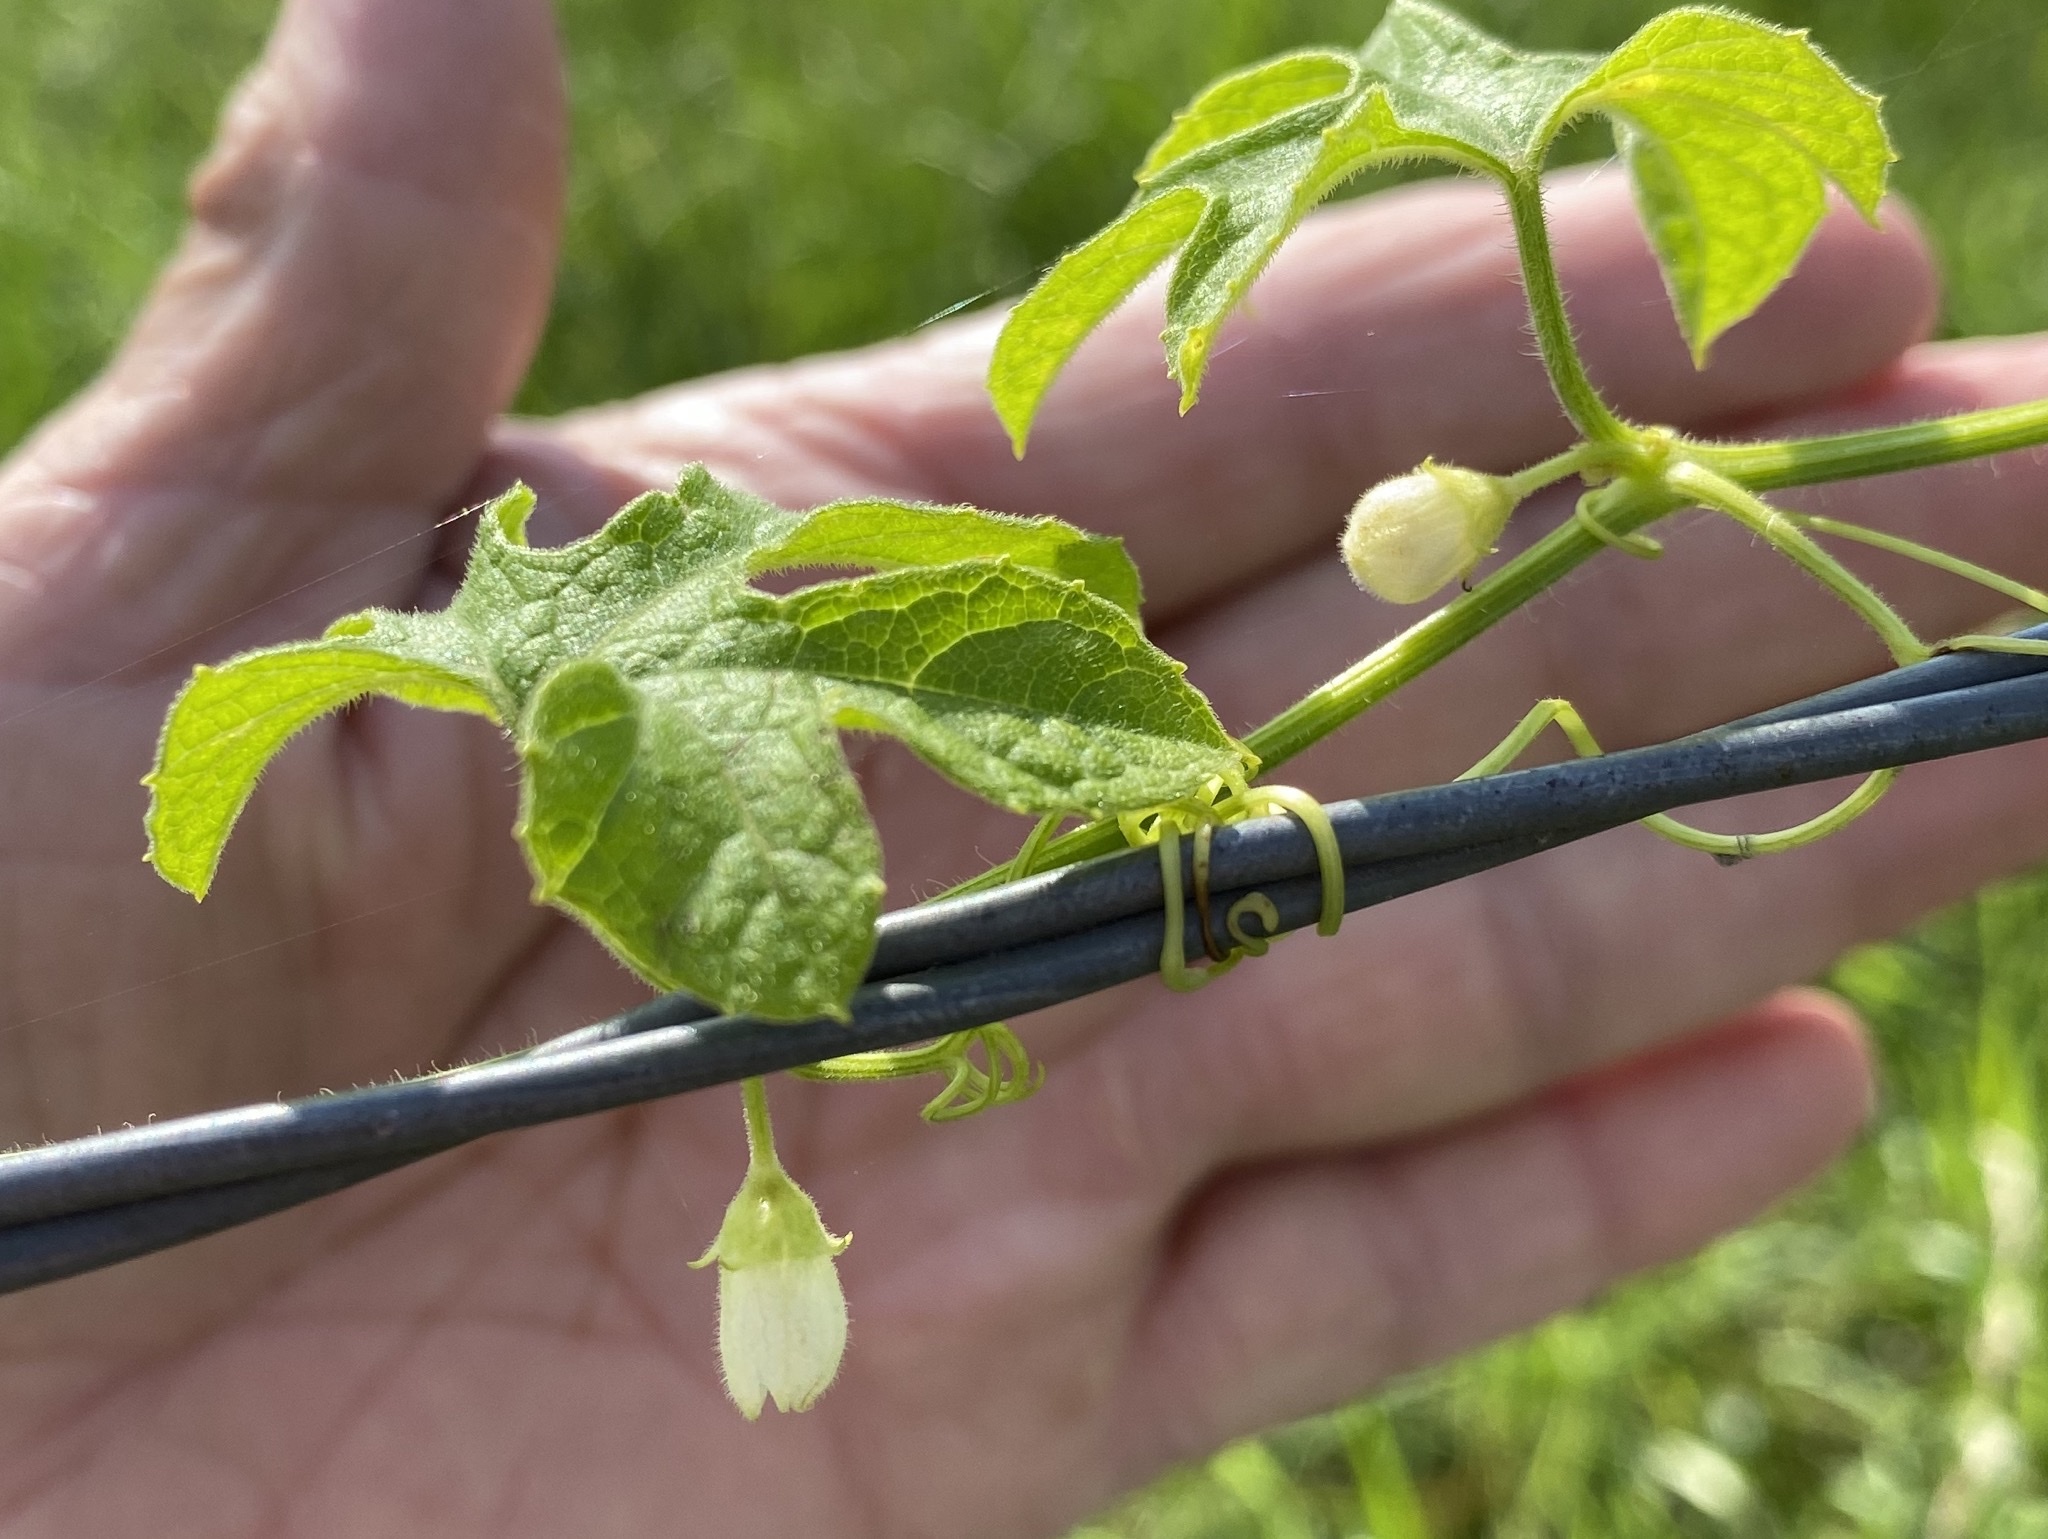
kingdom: Plantae
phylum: Tracheophyta
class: Magnoliopsida
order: Cucurbitales
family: Cucurbitaceae
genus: Cayaponia
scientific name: Cayaponia quinqueloba
